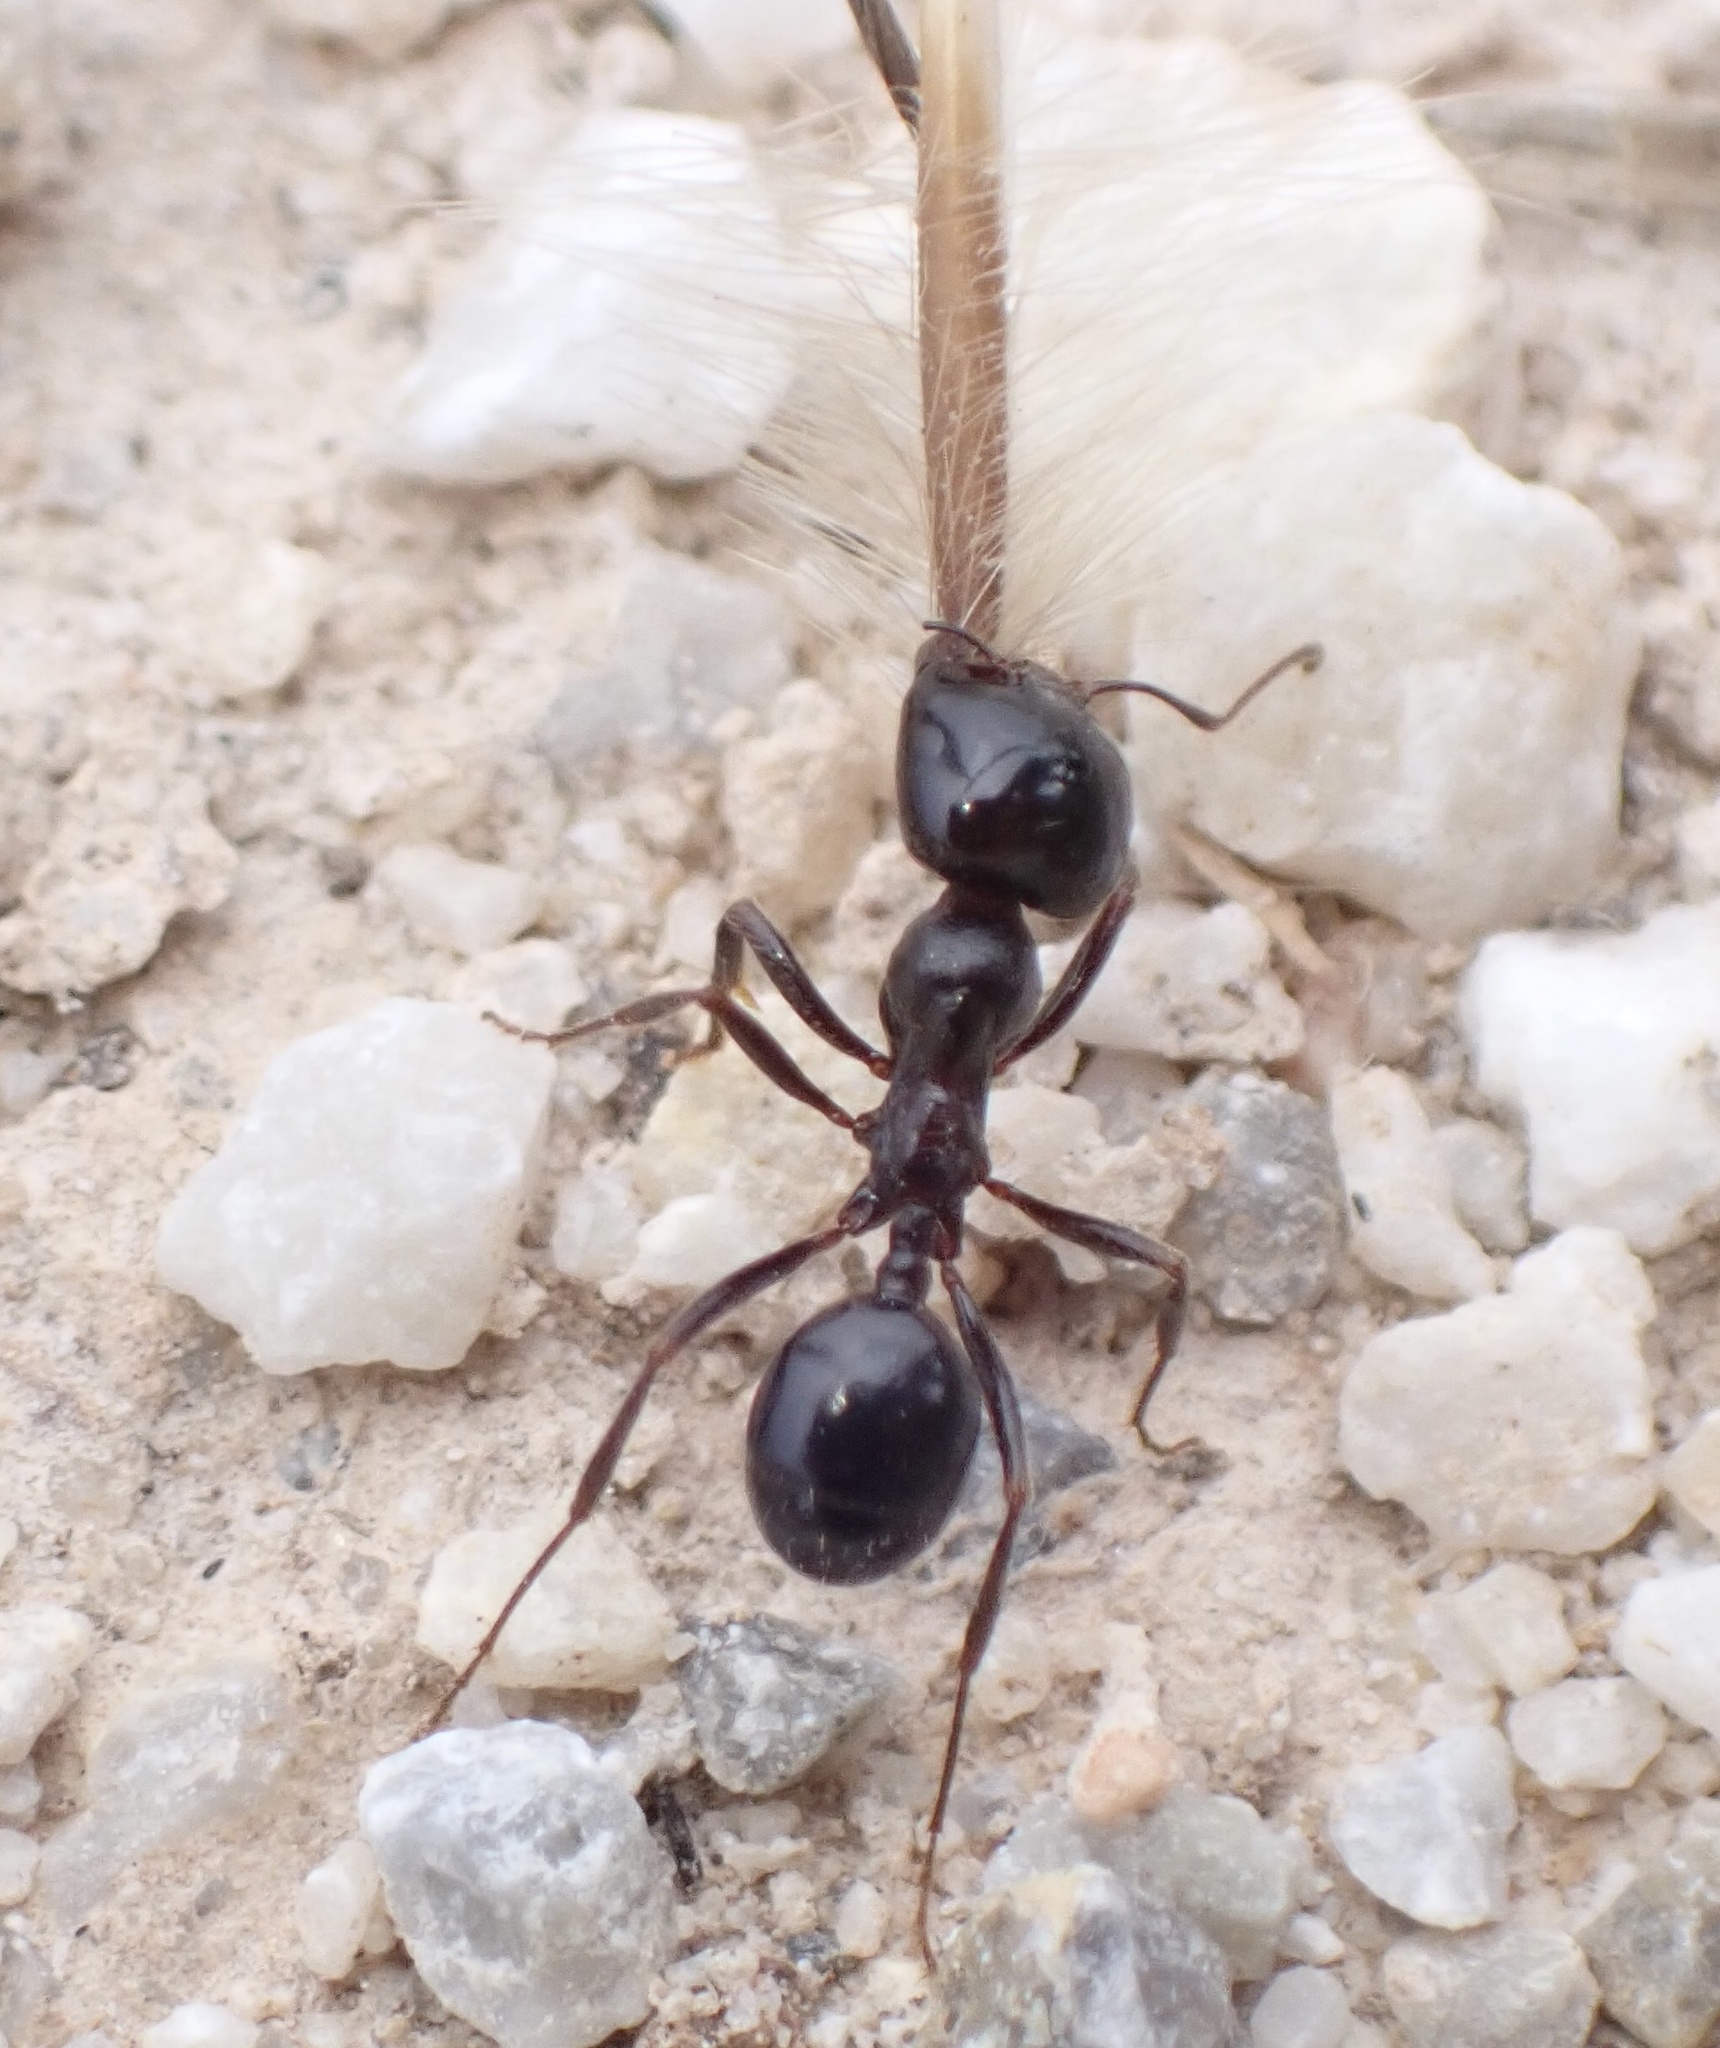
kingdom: Animalia
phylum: Arthropoda
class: Insecta
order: Hymenoptera
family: Formicidae
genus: Messor
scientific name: Messor wasmanni
